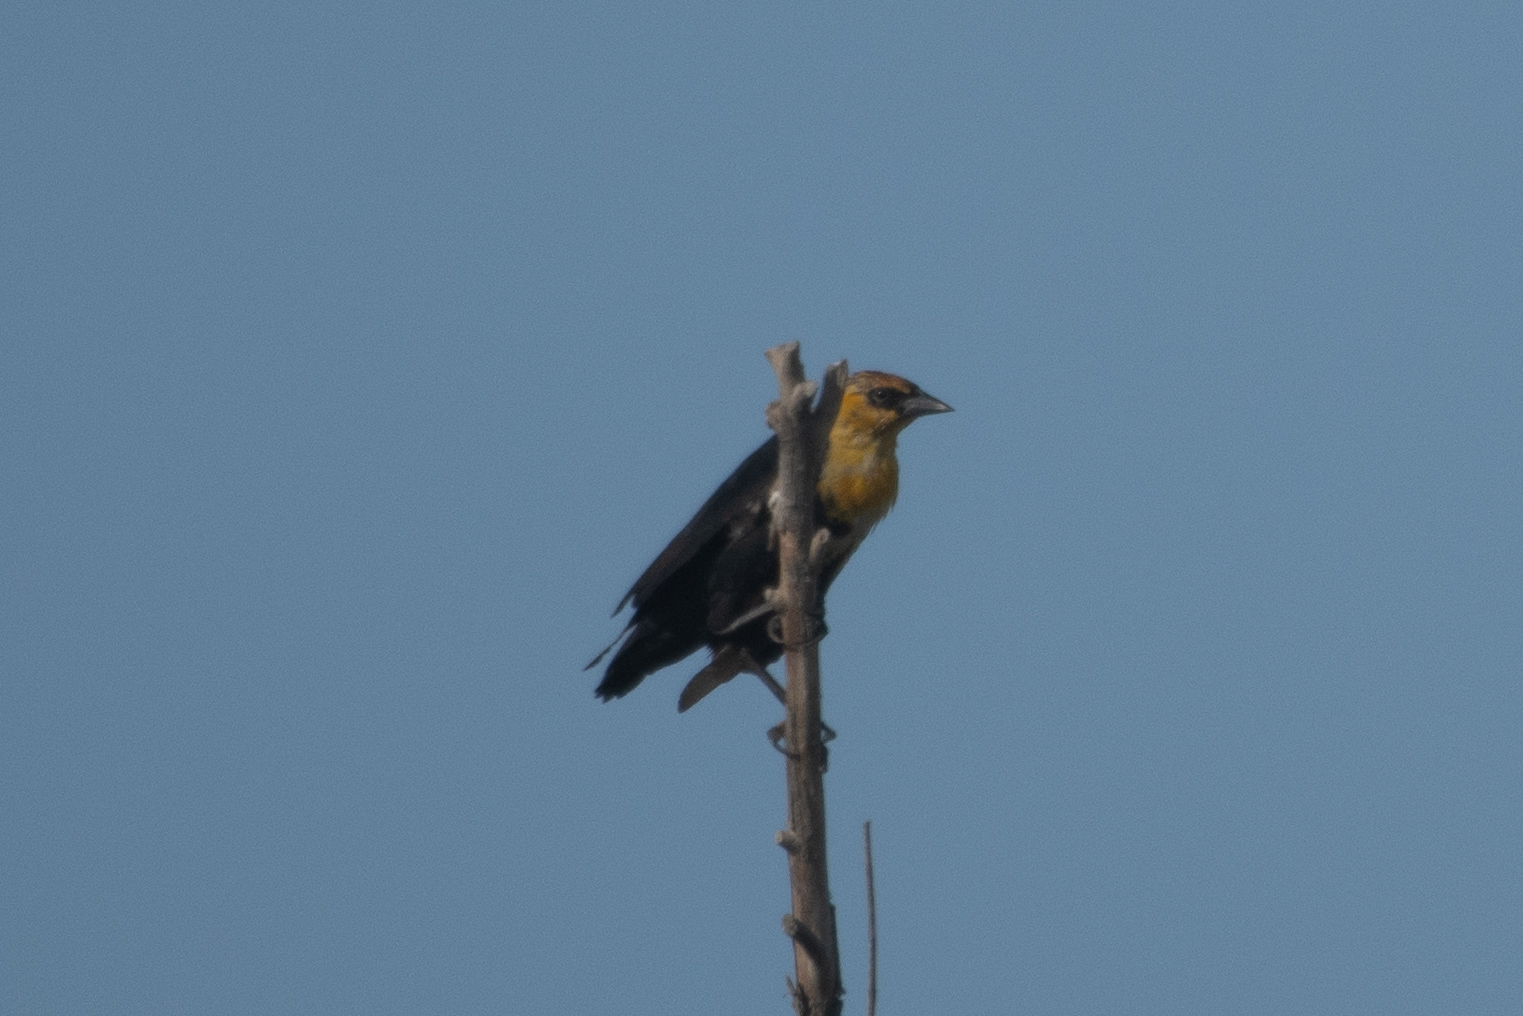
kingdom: Animalia
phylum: Chordata
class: Aves
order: Passeriformes
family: Icteridae
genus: Xanthocephalus
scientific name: Xanthocephalus xanthocephalus
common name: Yellow-headed blackbird
